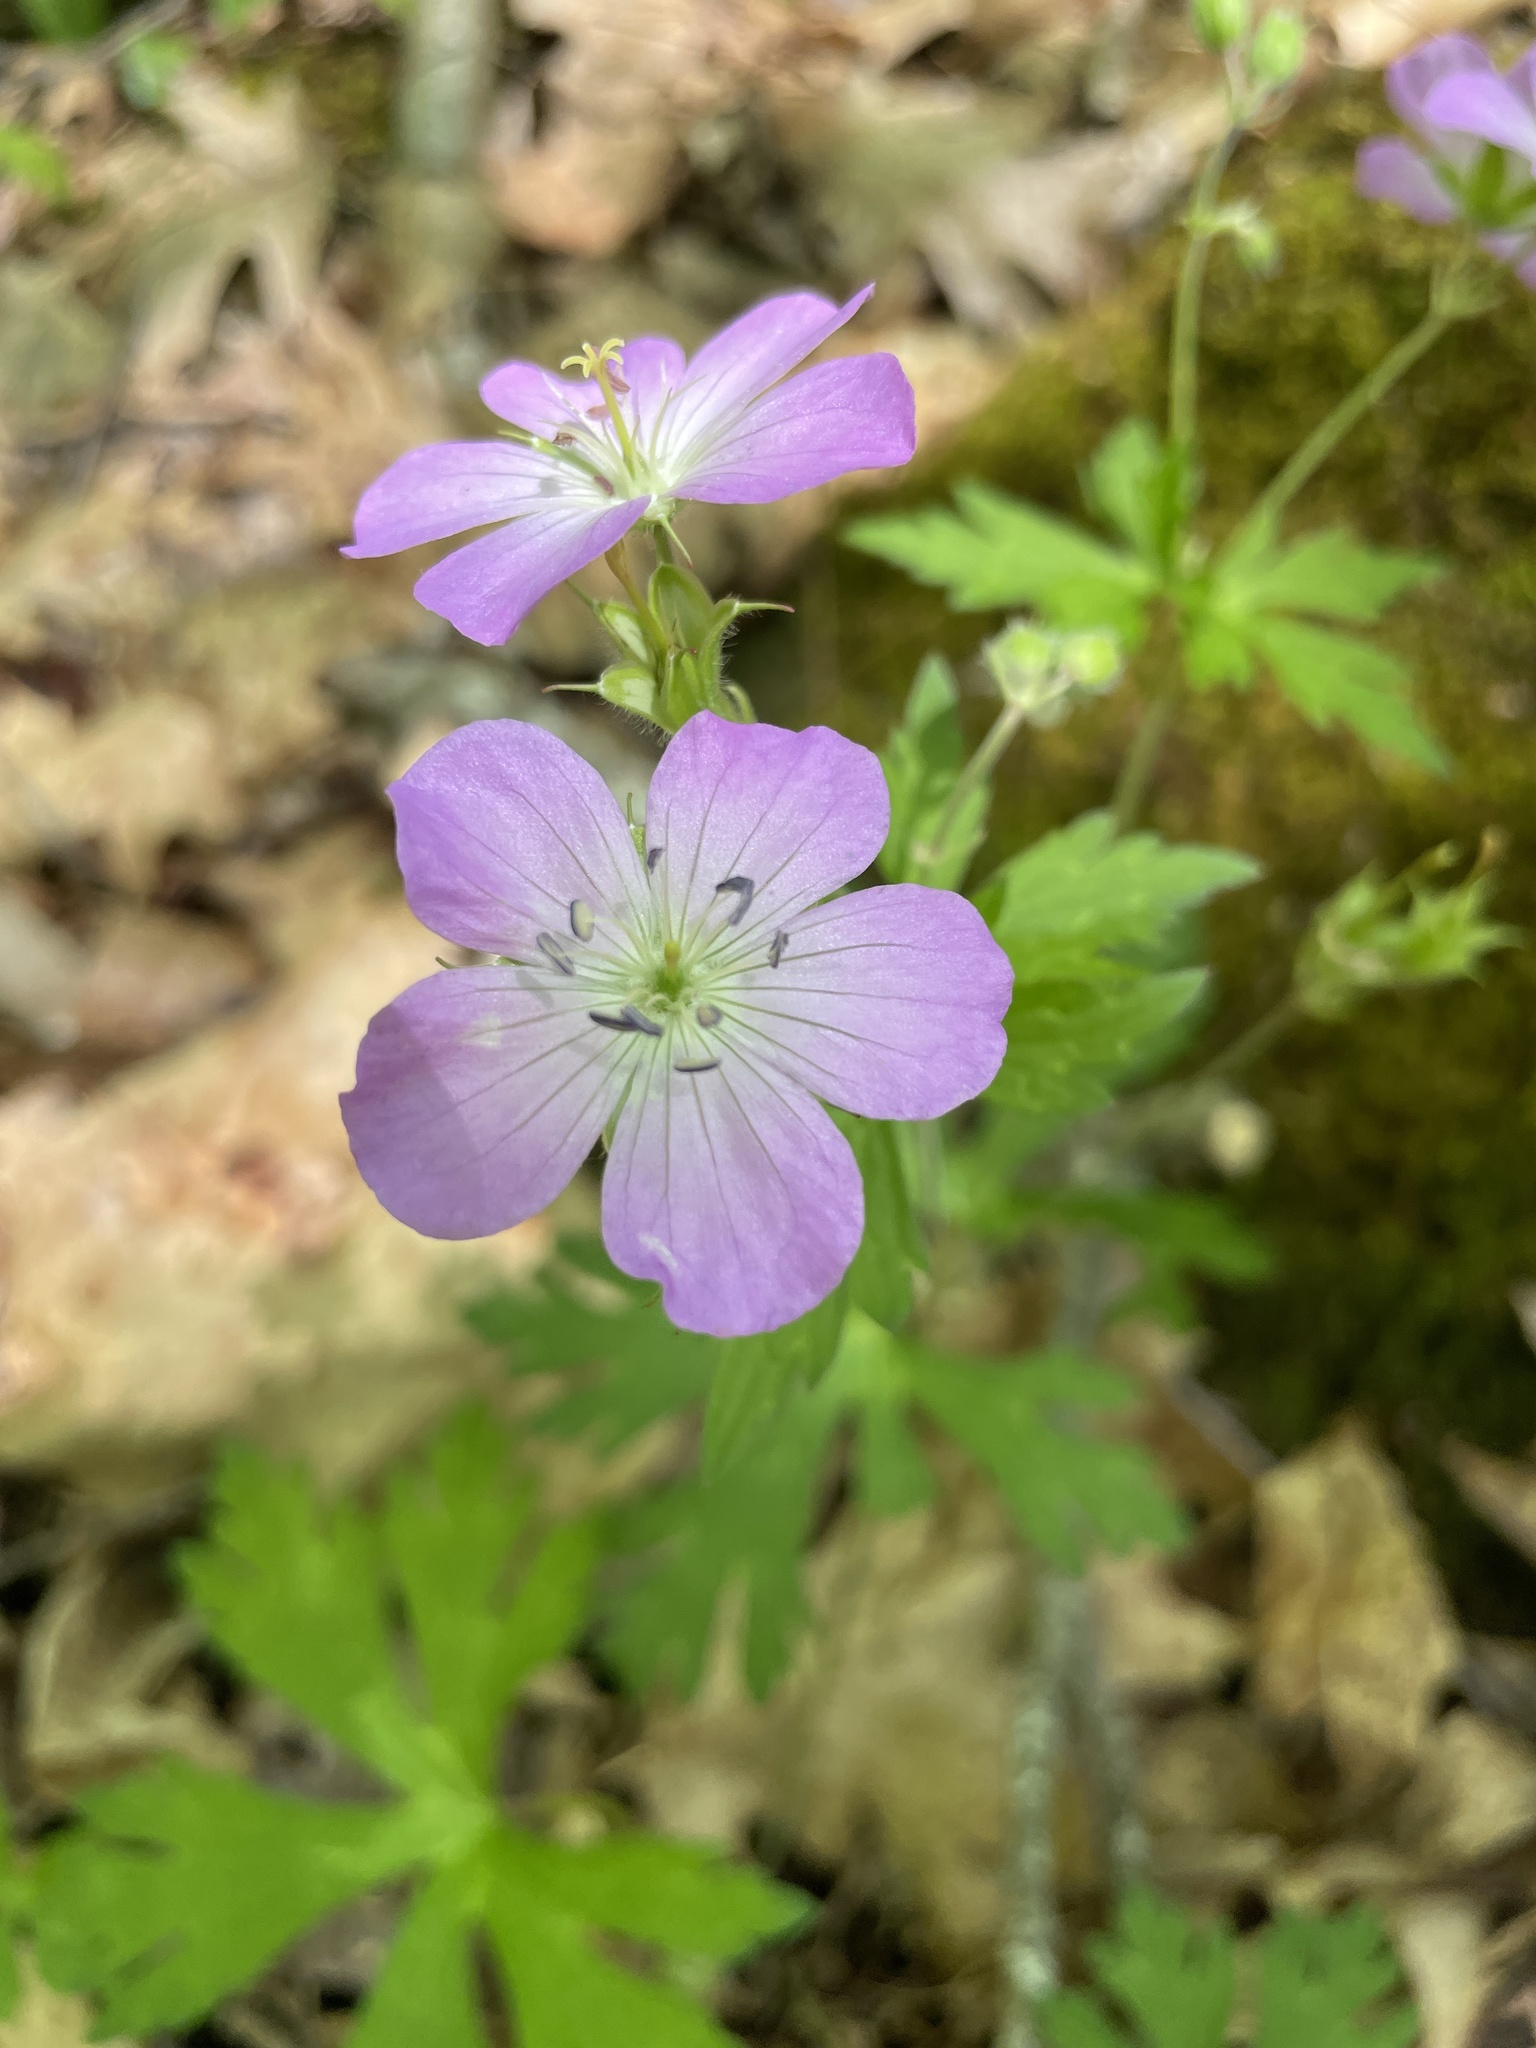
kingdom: Plantae
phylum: Tracheophyta
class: Magnoliopsida
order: Geraniales
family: Geraniaceae
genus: Geranium
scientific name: Geranium maculatum
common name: Spotted geranium
